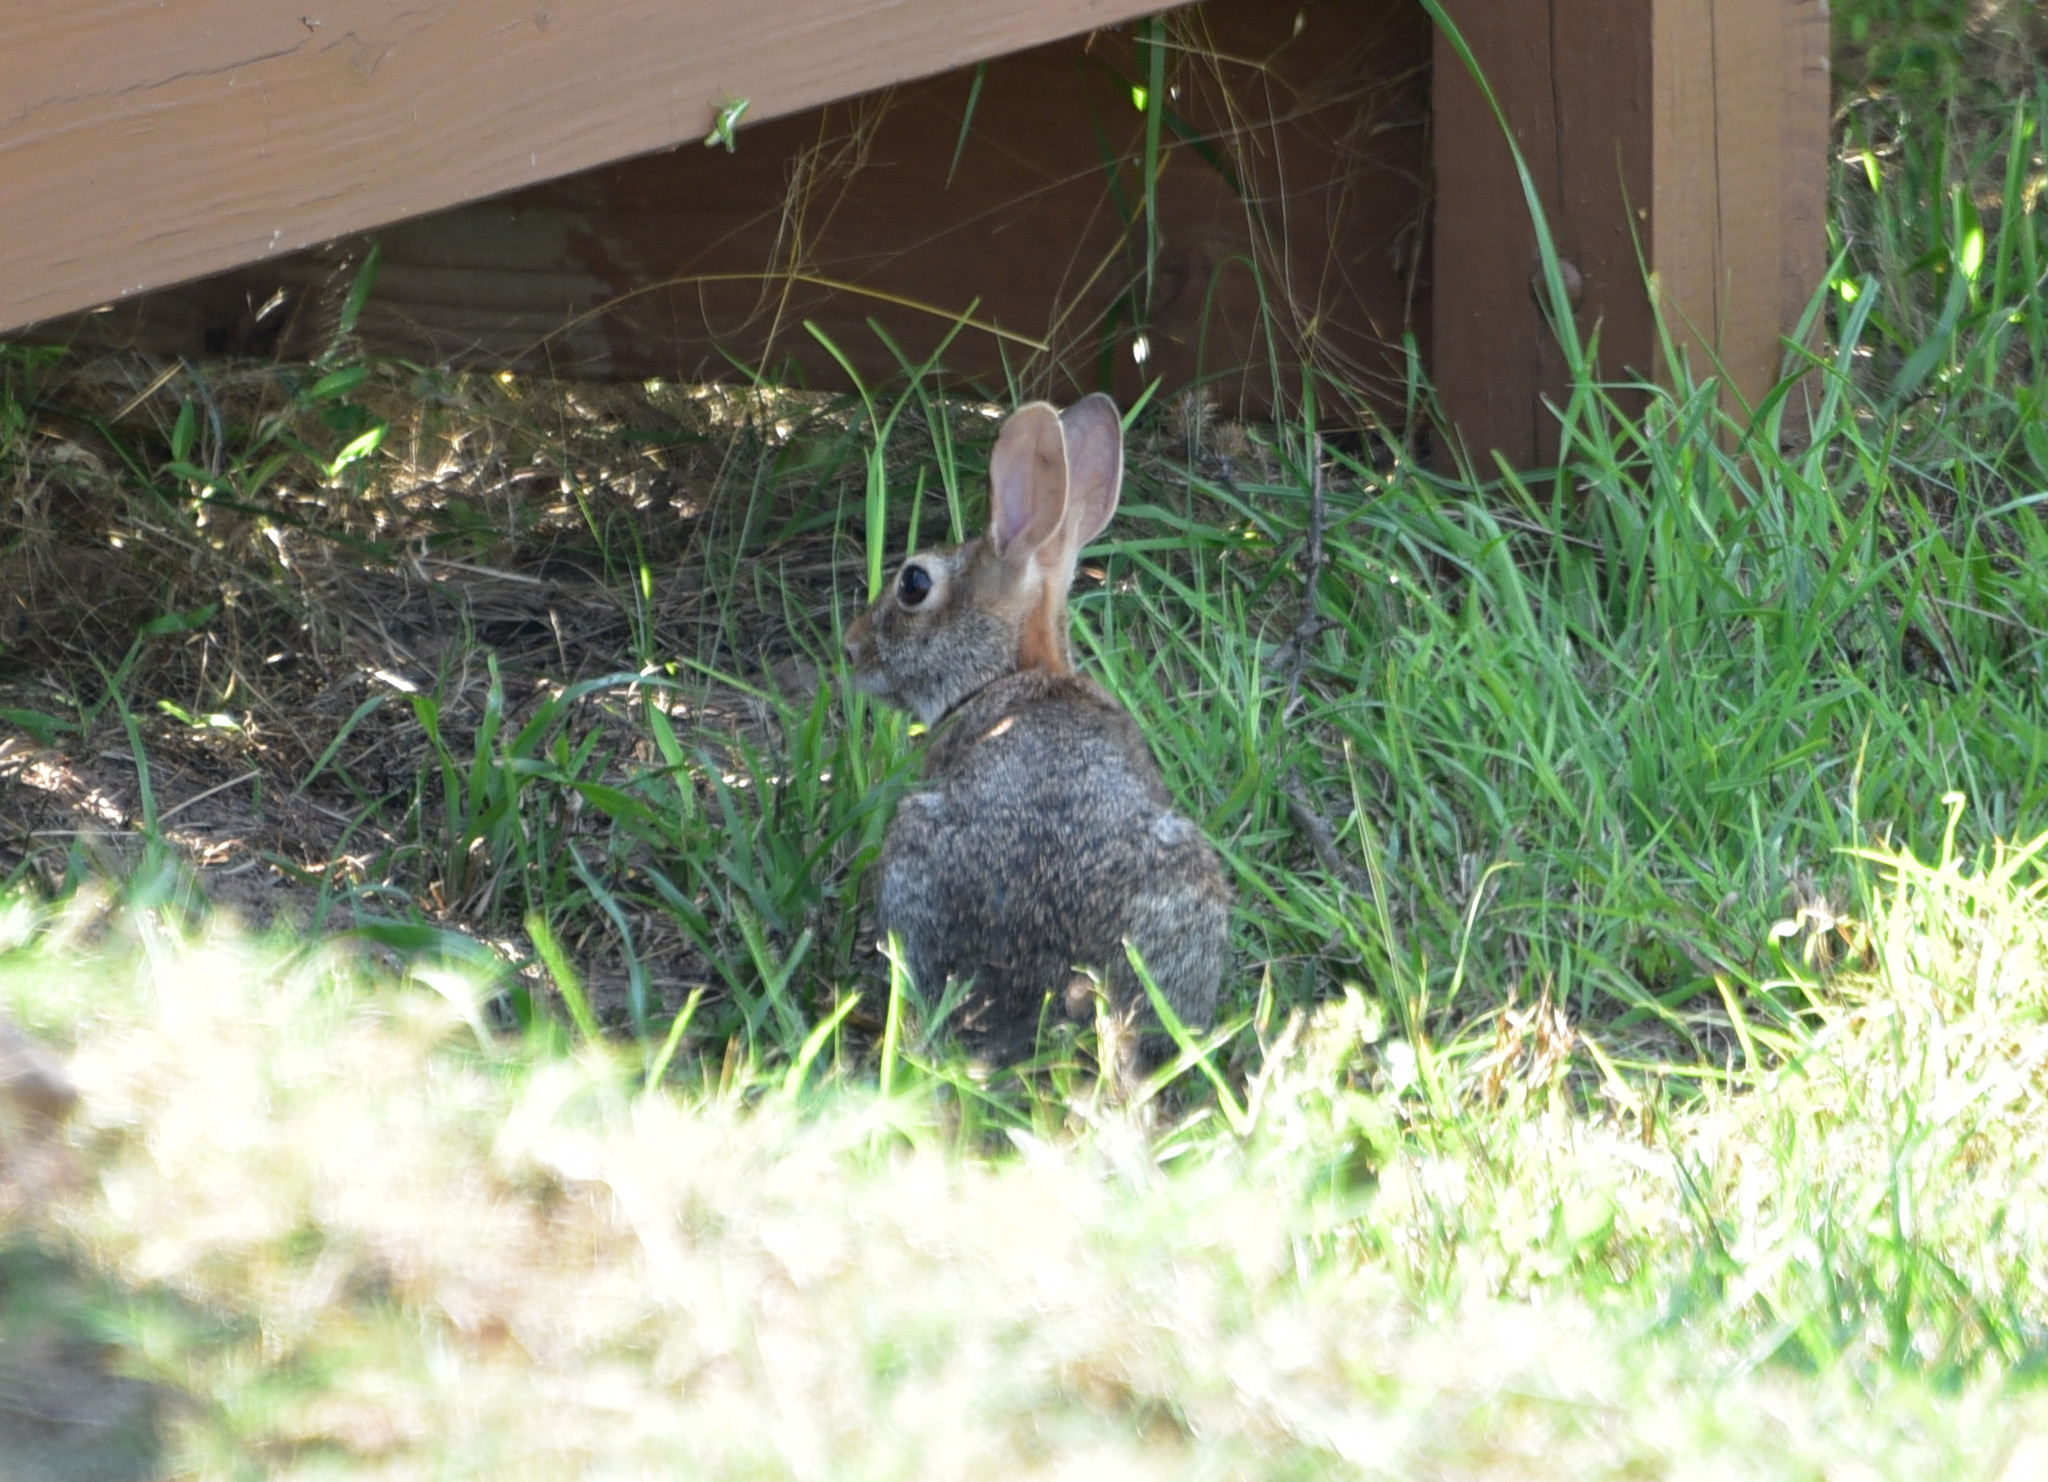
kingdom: Animalia
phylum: Chordata
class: Mammalia
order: Lagomorpha
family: Leporidae
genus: Sylvilagus
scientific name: Sylvilagus floridanus
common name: Eastern cottontail
